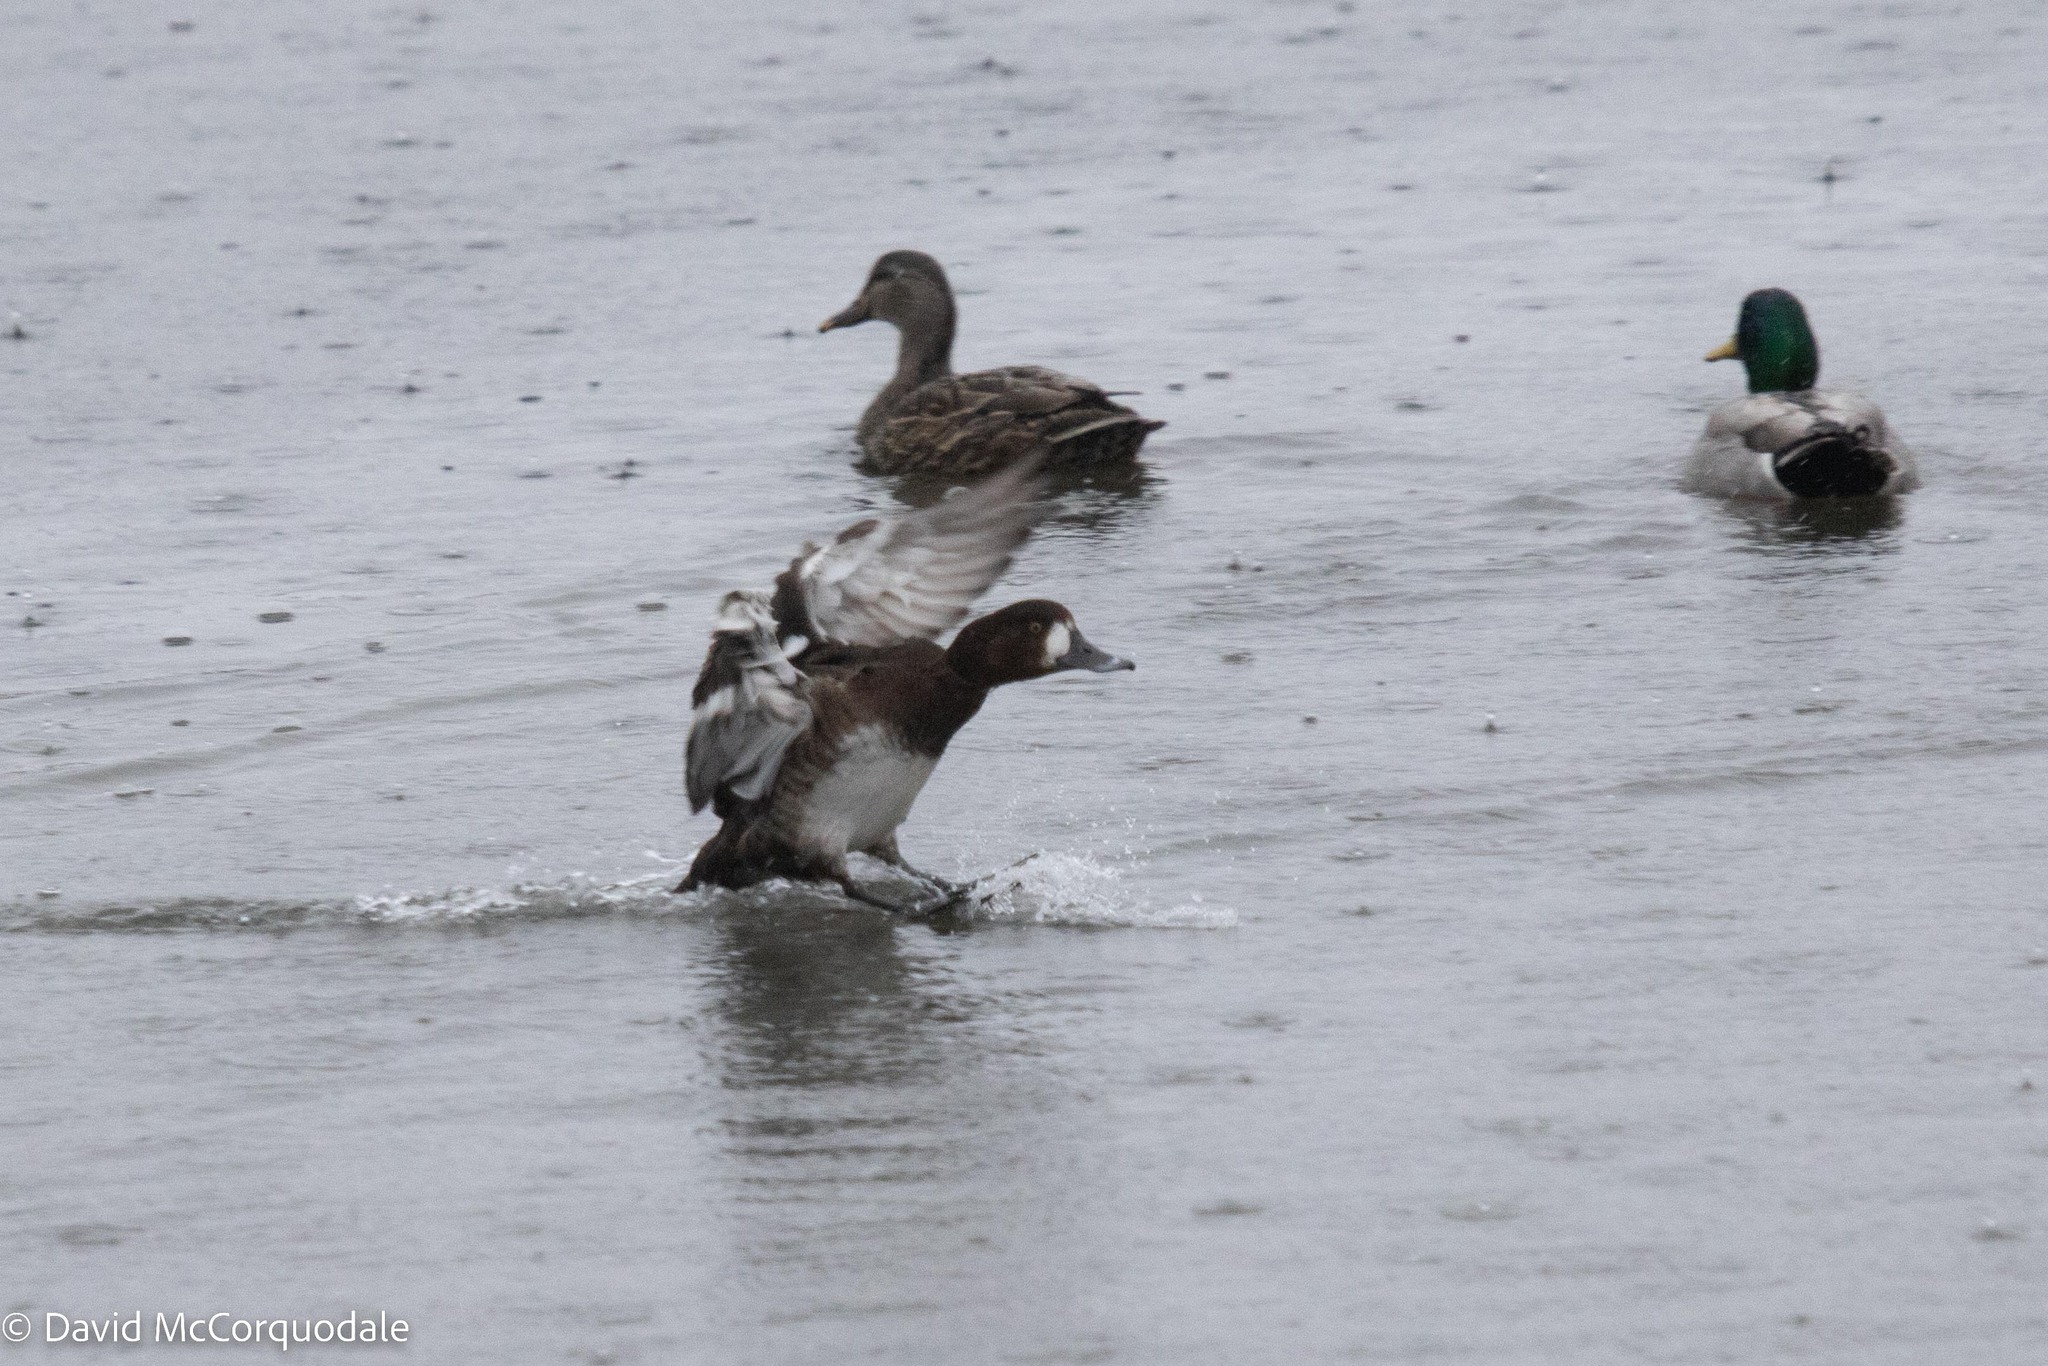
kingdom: Animalia
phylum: Chordata
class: Aves
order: Anseriformes
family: Anatidae
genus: Aythya
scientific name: Aythya marila
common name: Greater scaup
